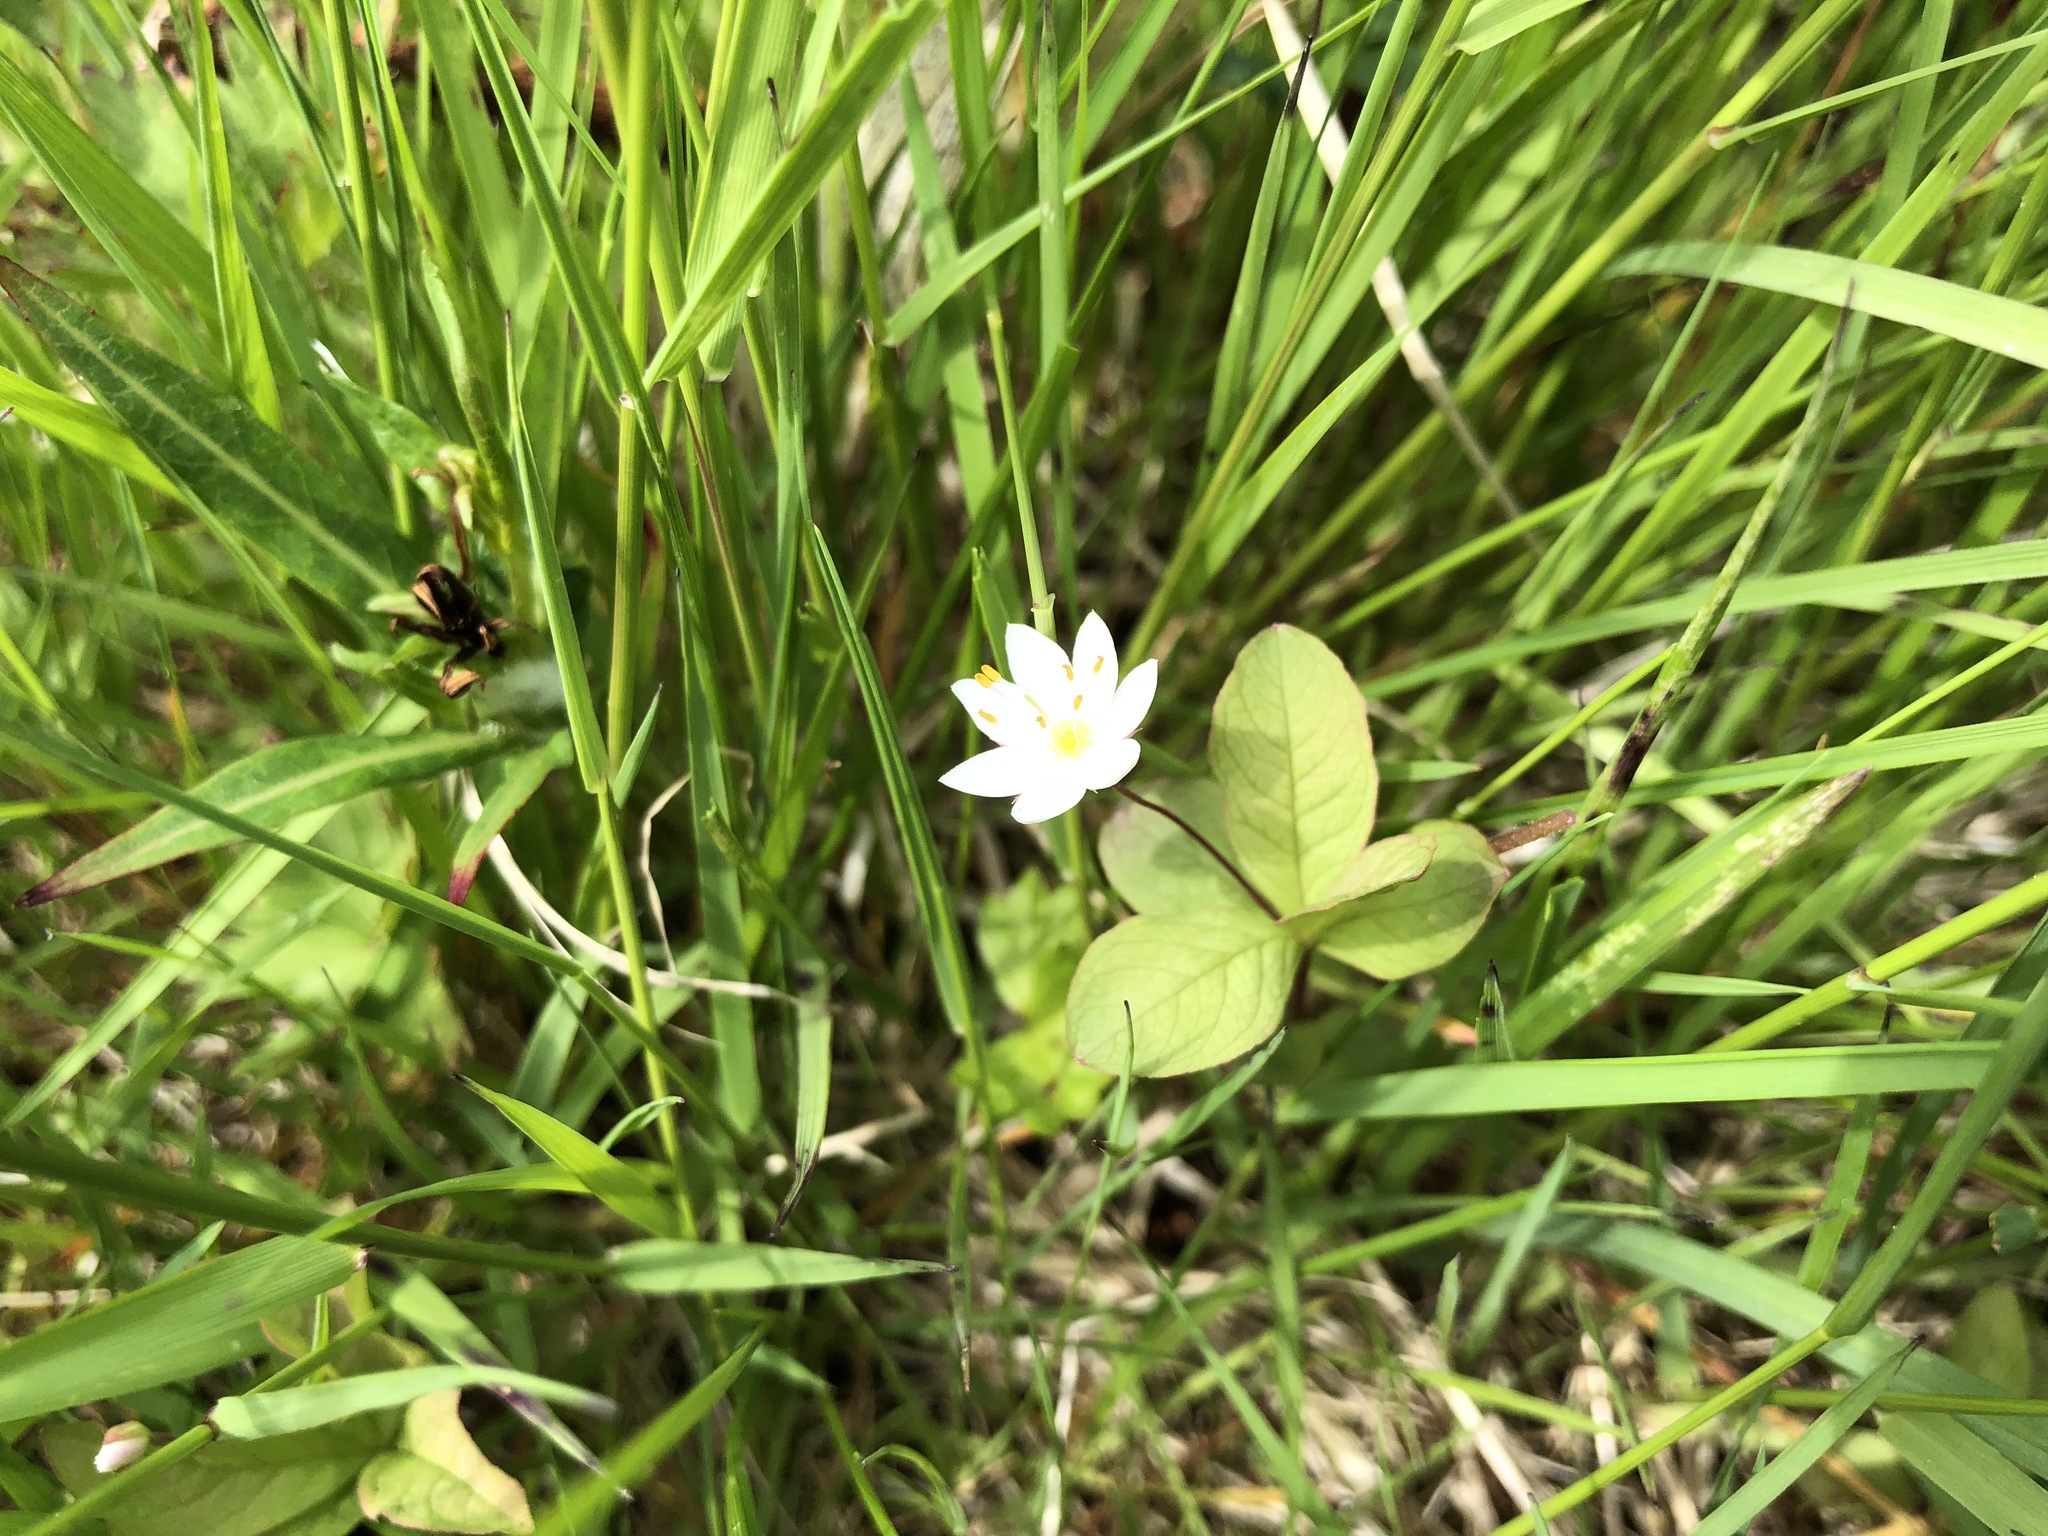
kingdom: Plantae
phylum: Tracheophyta
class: Magnoliopsida
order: Ericales
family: Primulaceae
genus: Lysimachia
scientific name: Lysimachia europaea
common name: Arctic starflower
